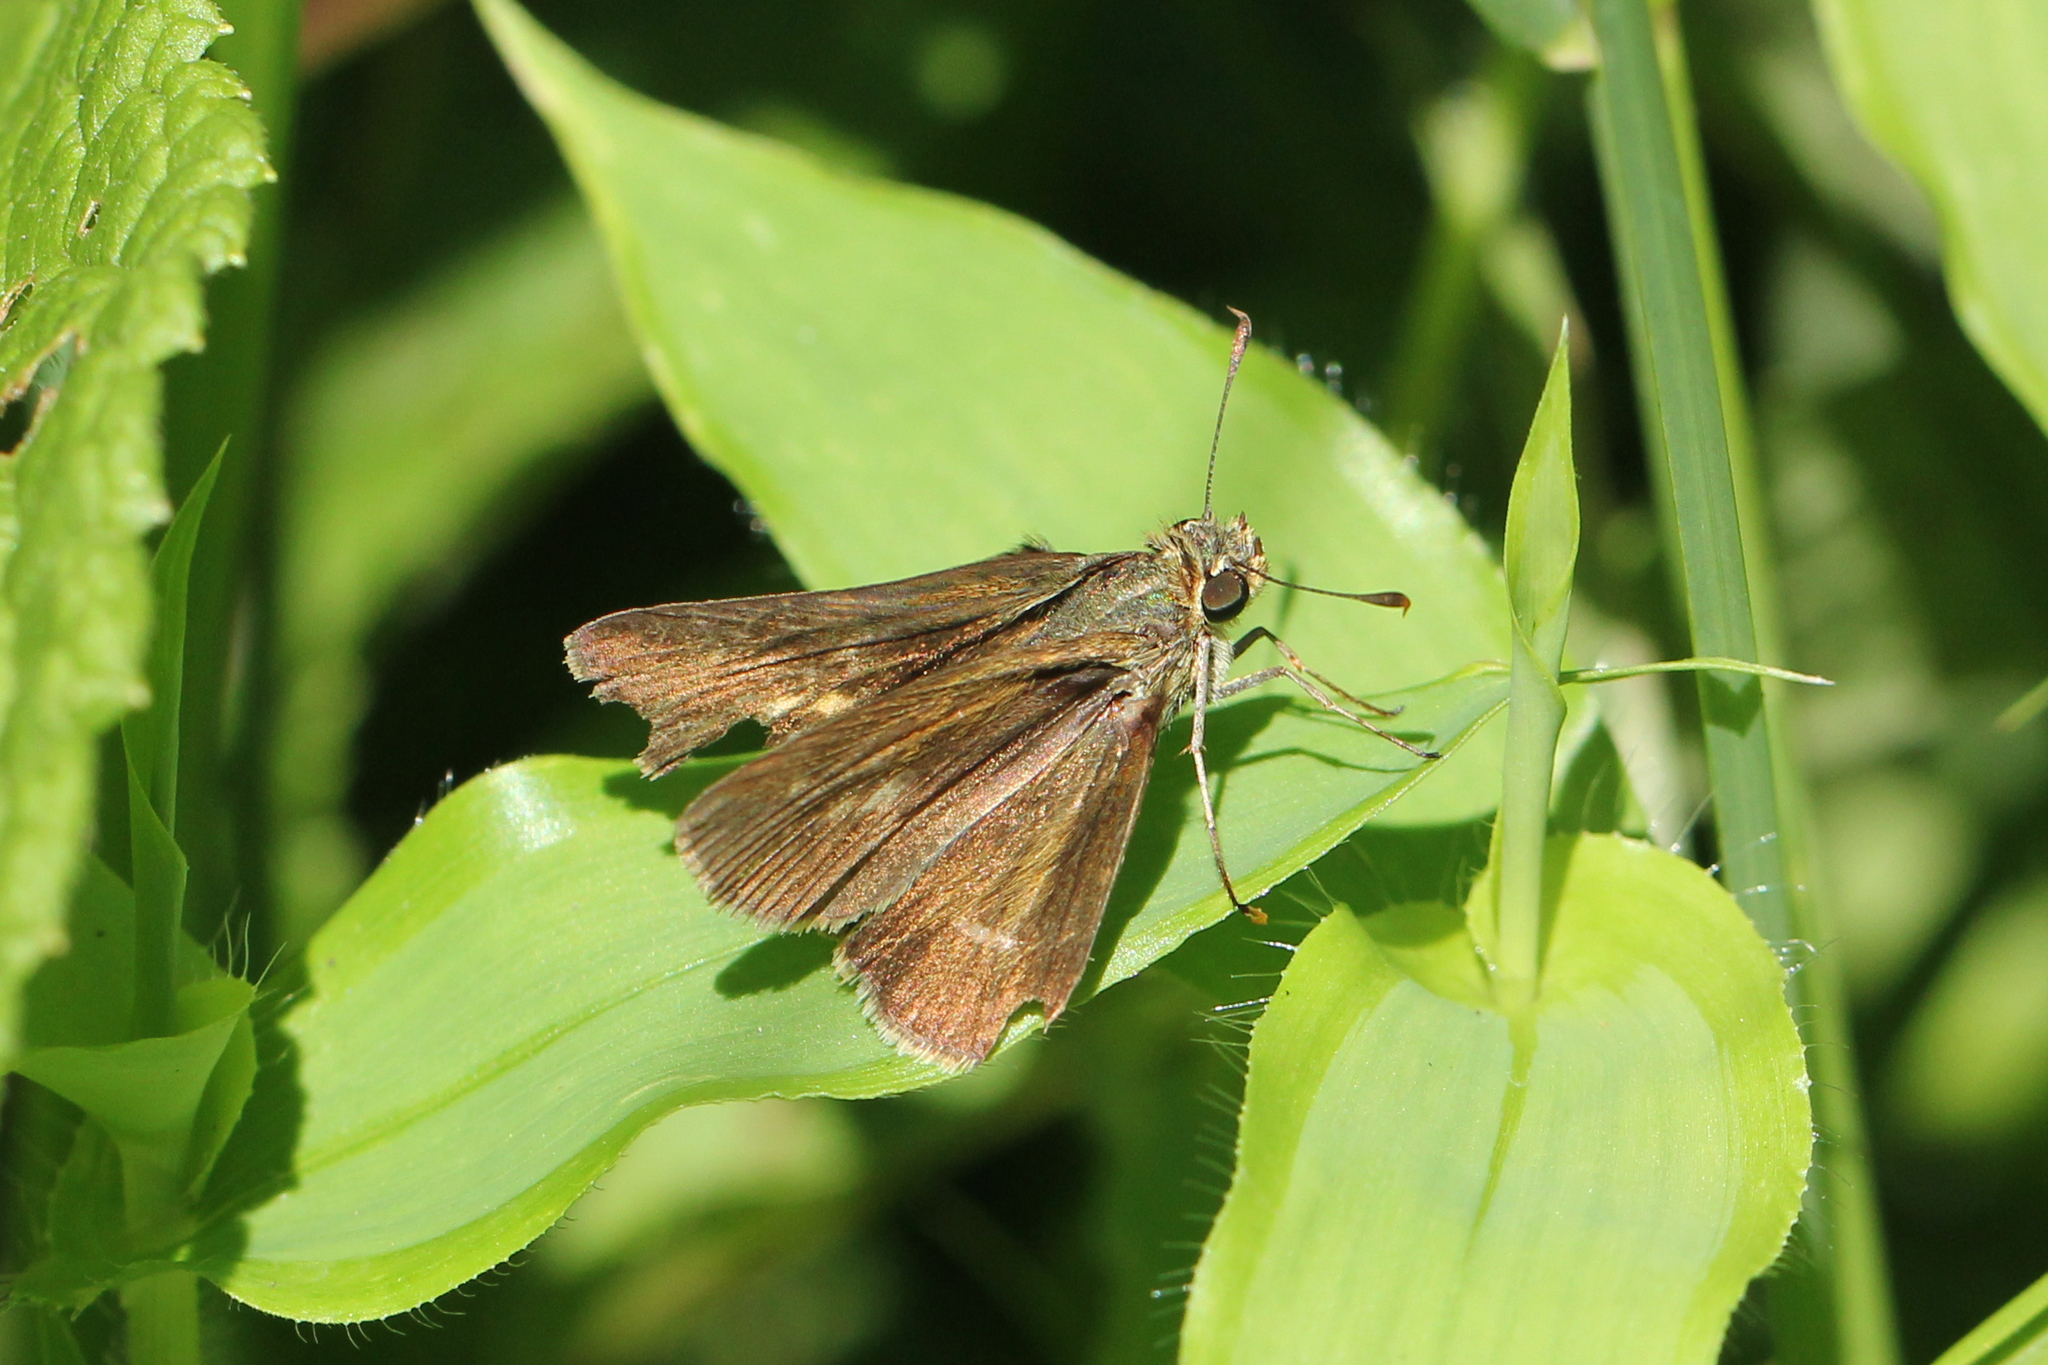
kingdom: Animalia
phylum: Arthropoda
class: Insecta
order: Lepidoptera
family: Hesperiidae
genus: Vernia
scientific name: Vernia verna
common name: Little glassywing
